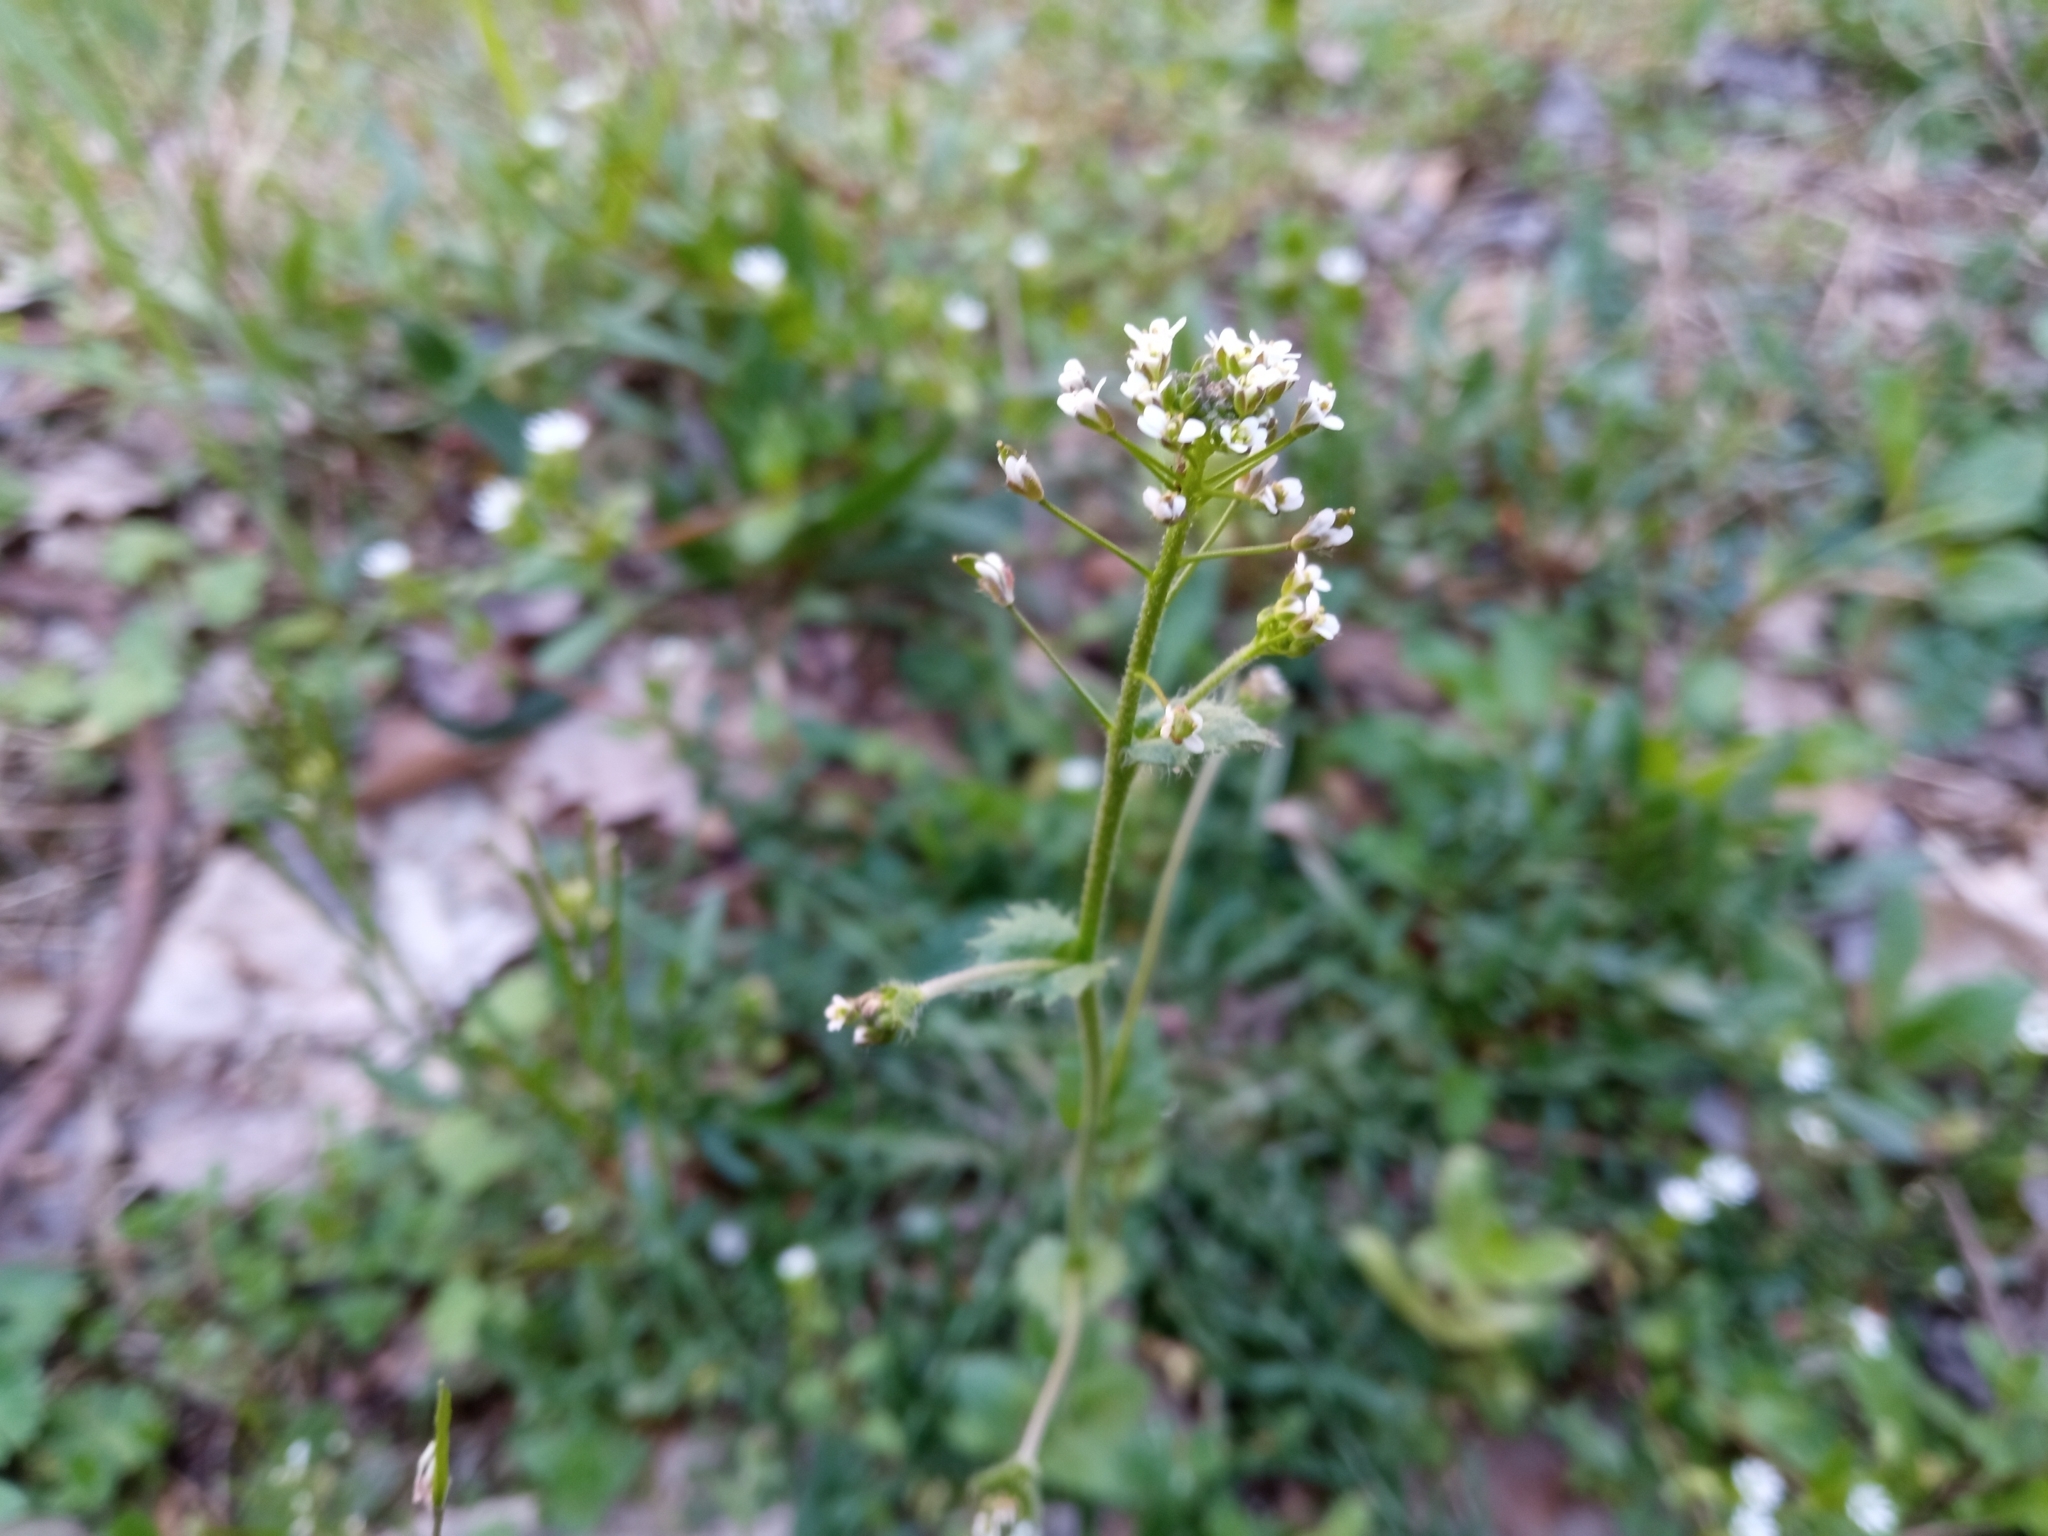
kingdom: Plantae
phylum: Tracheophyta
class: Magnoliopsida
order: Brassicales
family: Brassicaceae
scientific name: Brassicaceae
